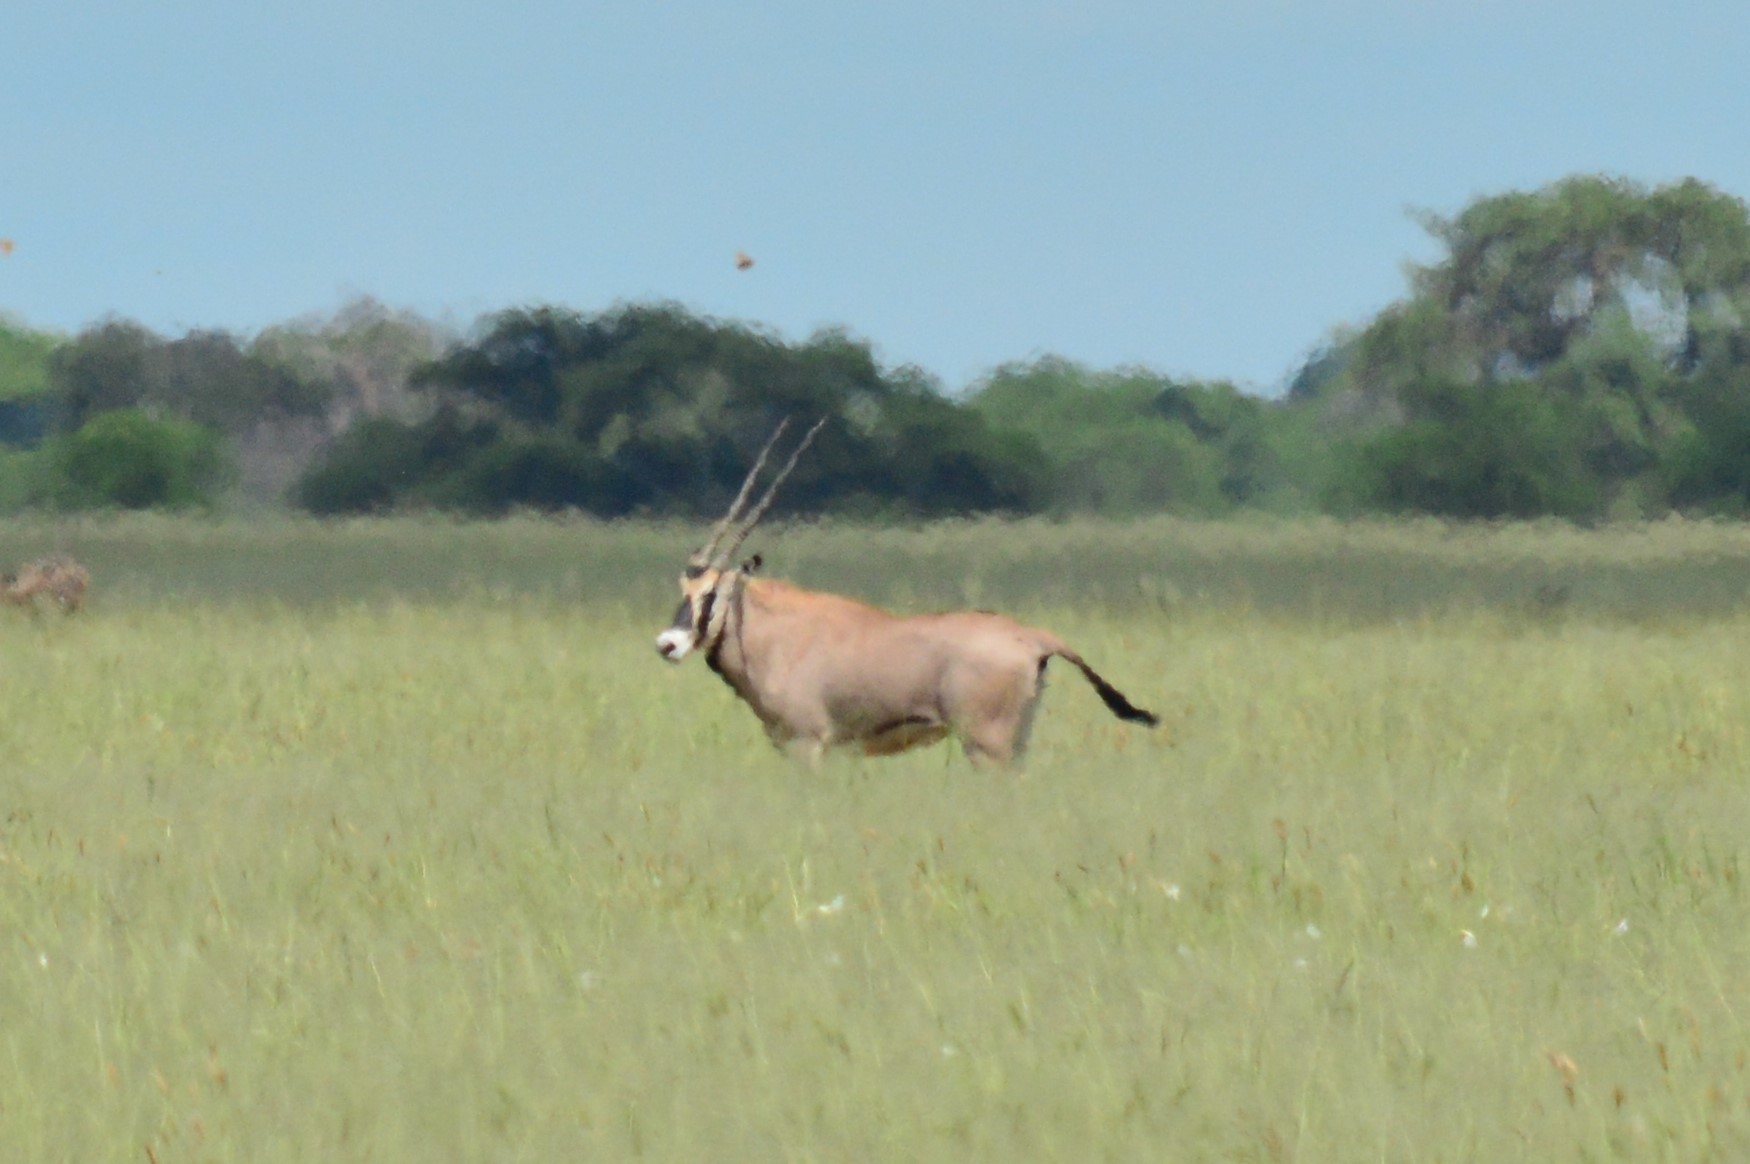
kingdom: Animalia
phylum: Chordata
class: Mammalia
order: Artiodactyla
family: Bovidae
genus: Oryx
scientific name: Oryx beisa
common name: Beisa
